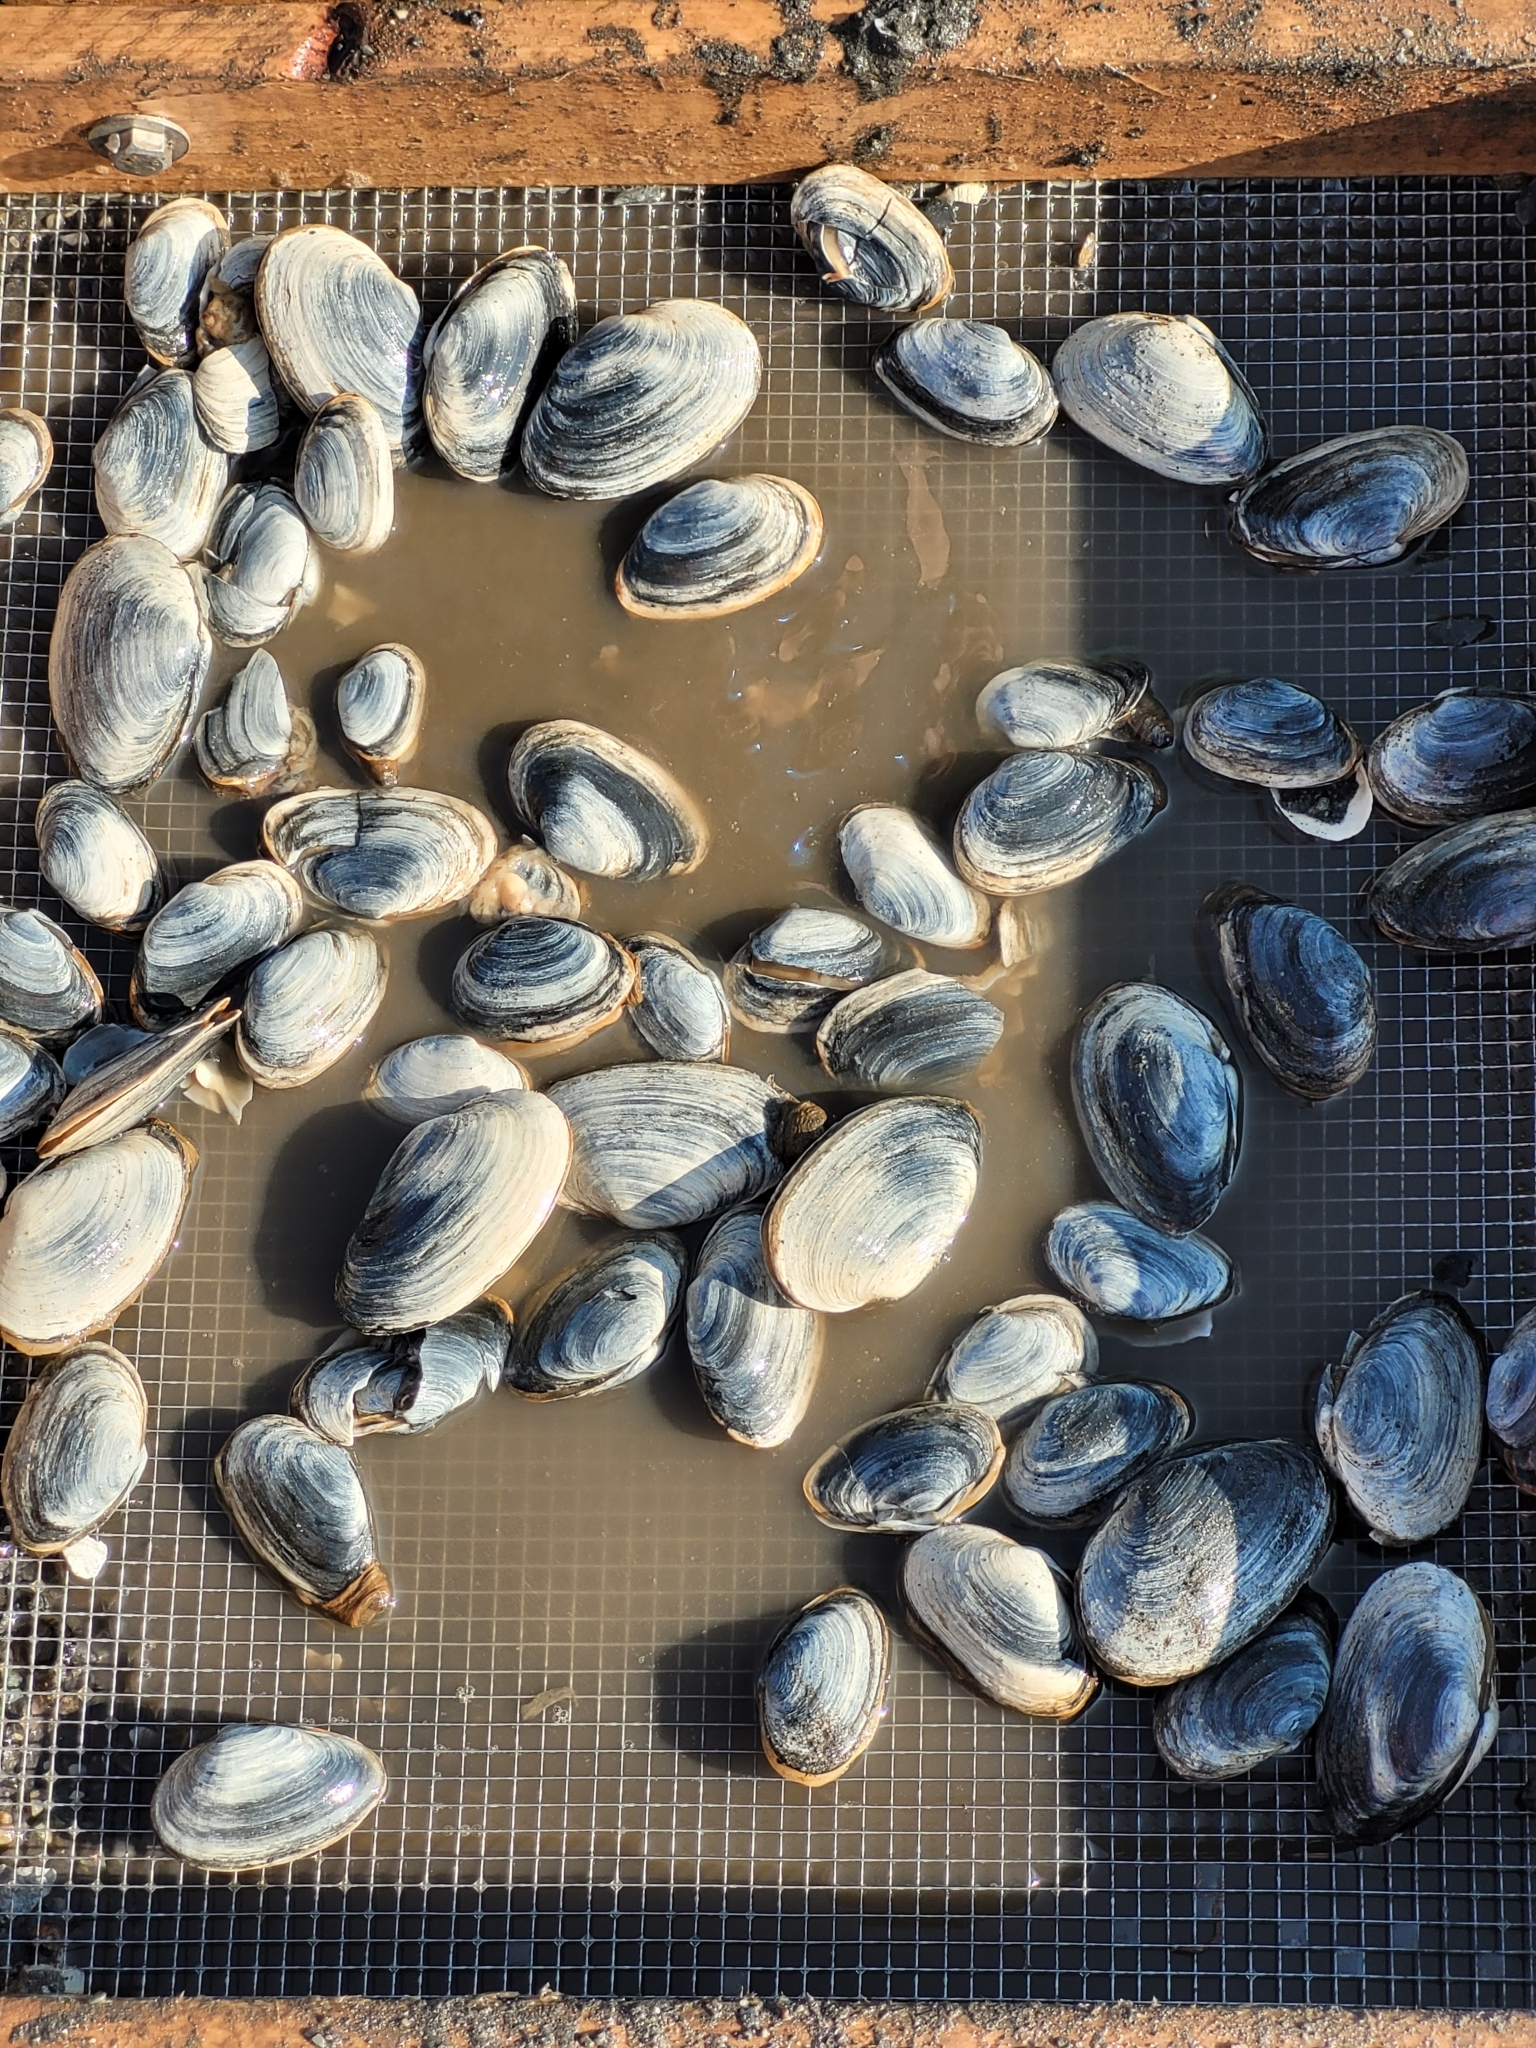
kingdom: Animalia
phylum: Mollusca
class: Bivalvia
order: Myida
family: Myidae
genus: Mya
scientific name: Mya arenaria
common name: Soft-shelled clam
